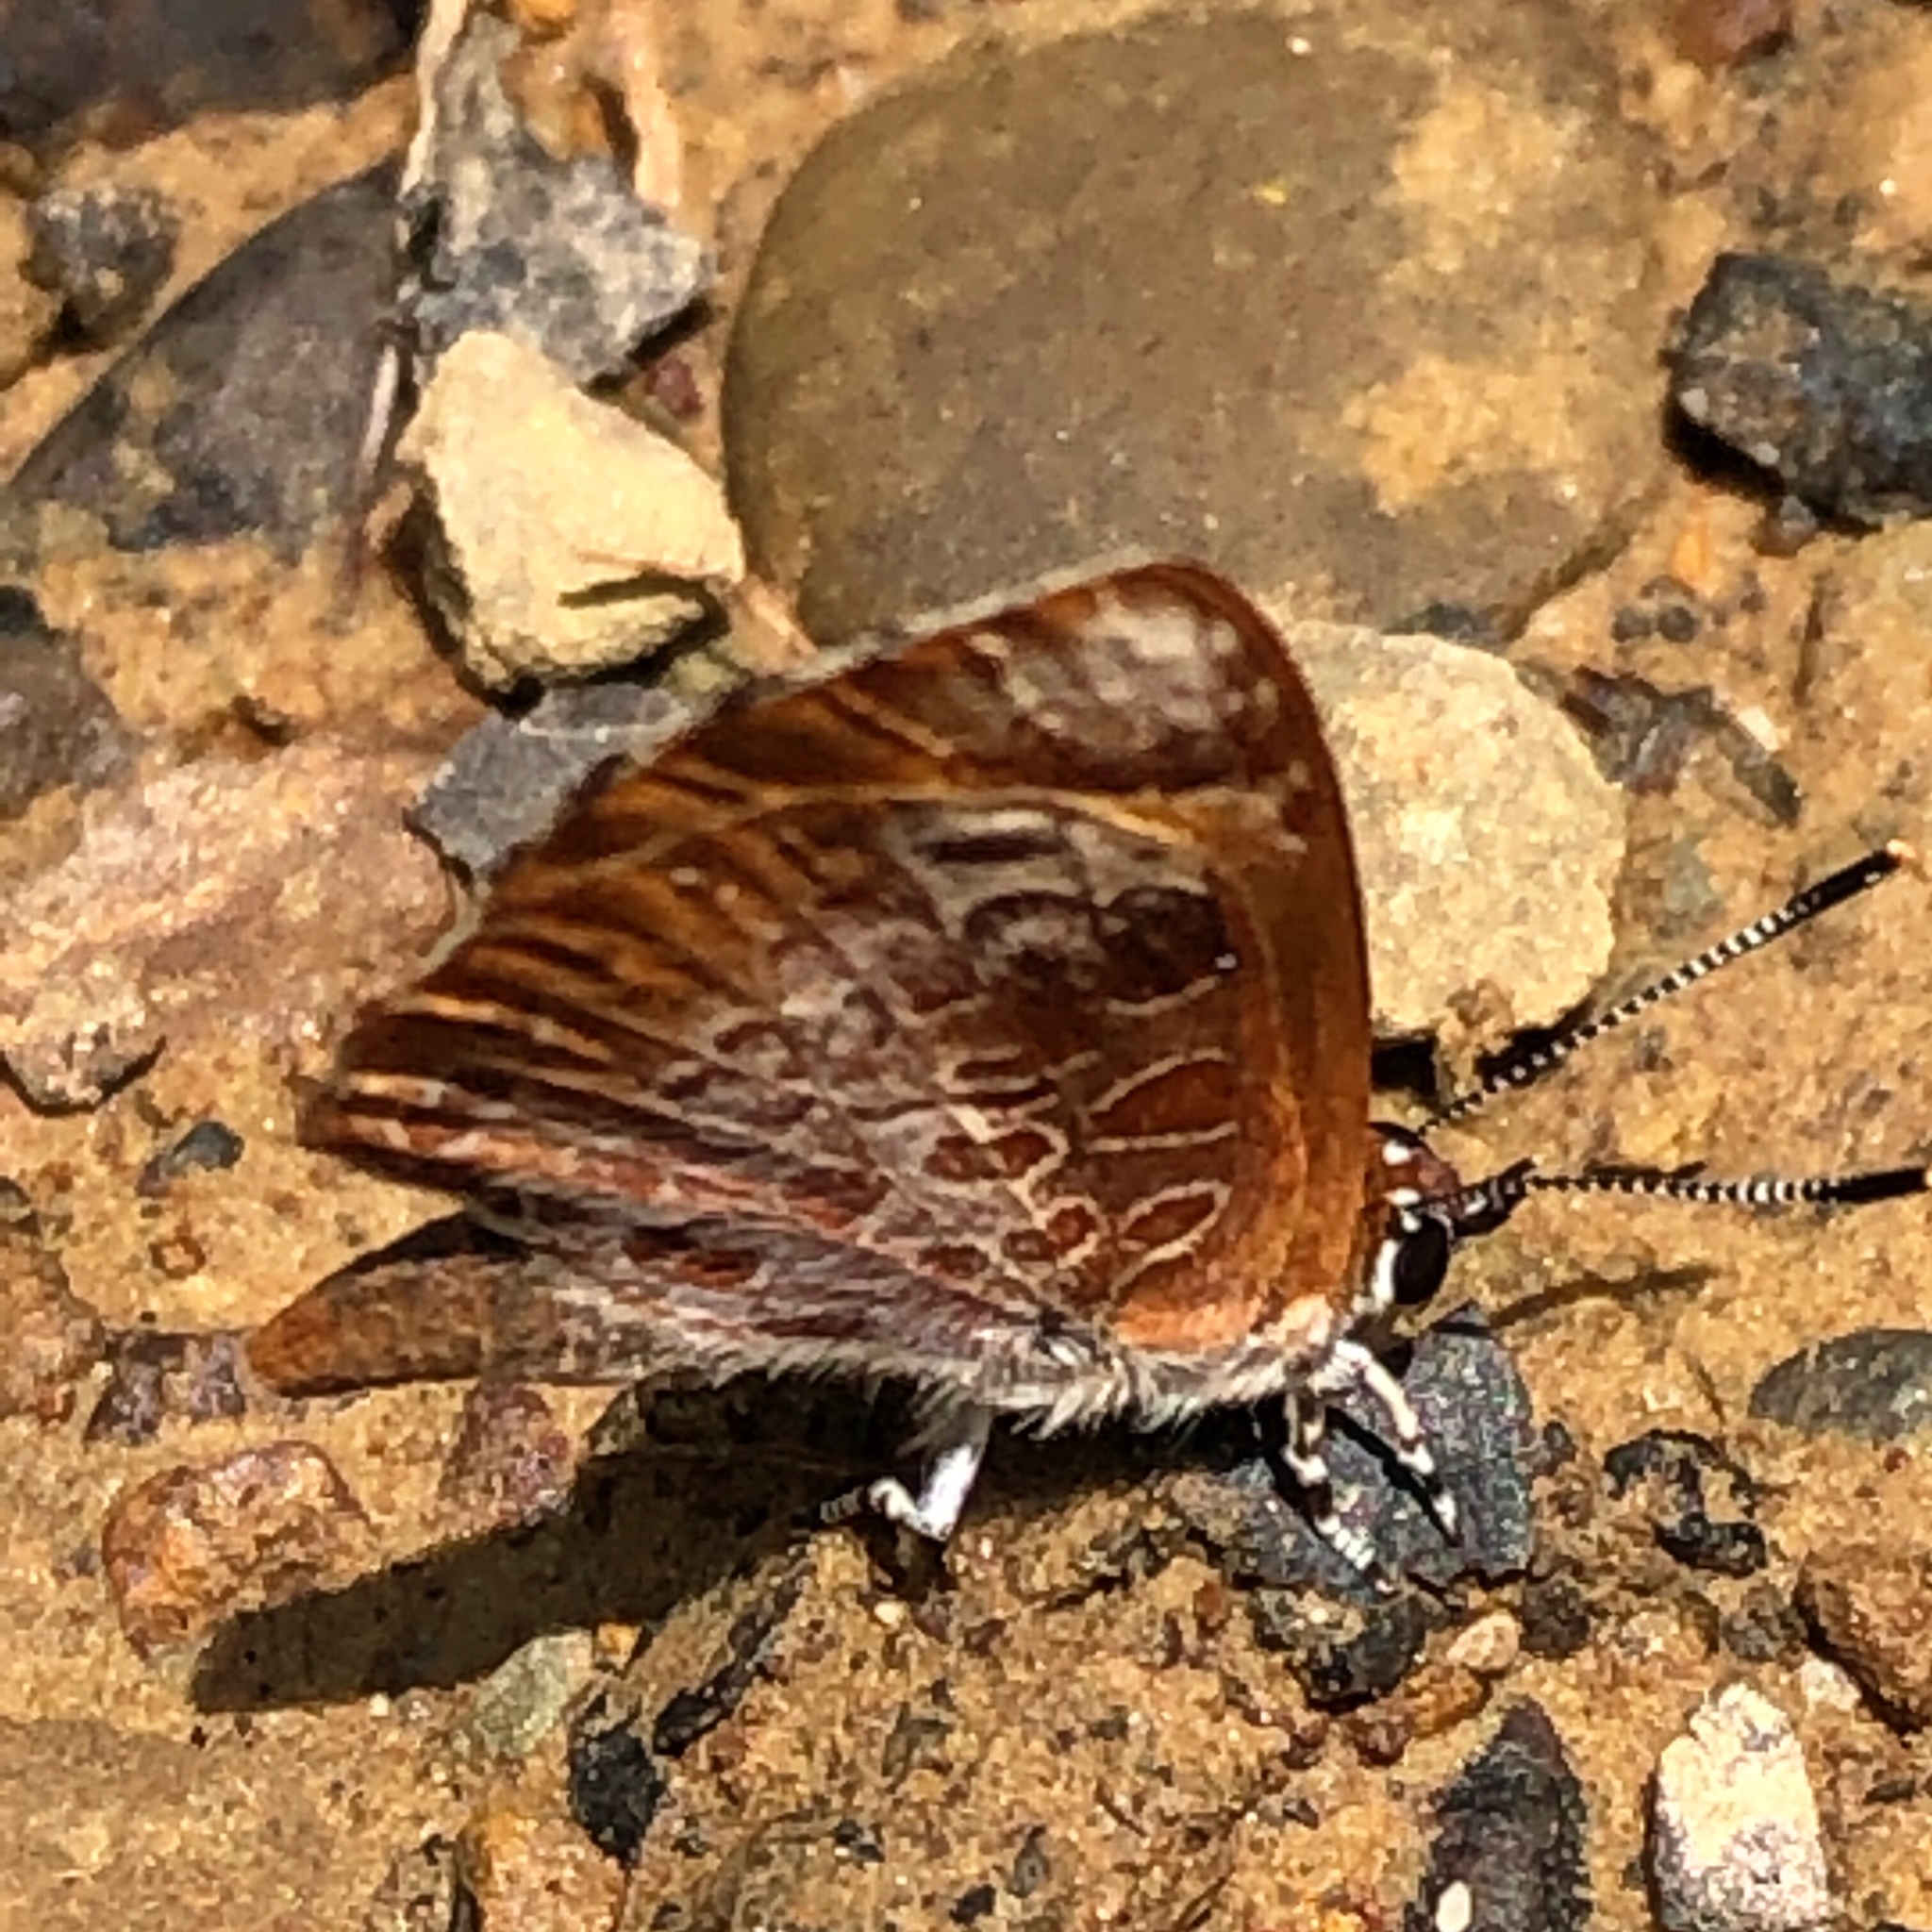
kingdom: Animalia
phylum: Arthropoda
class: Insecta
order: Lepidoptera
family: Lycaenidae
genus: Feniseca
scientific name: Feniseca tarquinius
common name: Harvester
